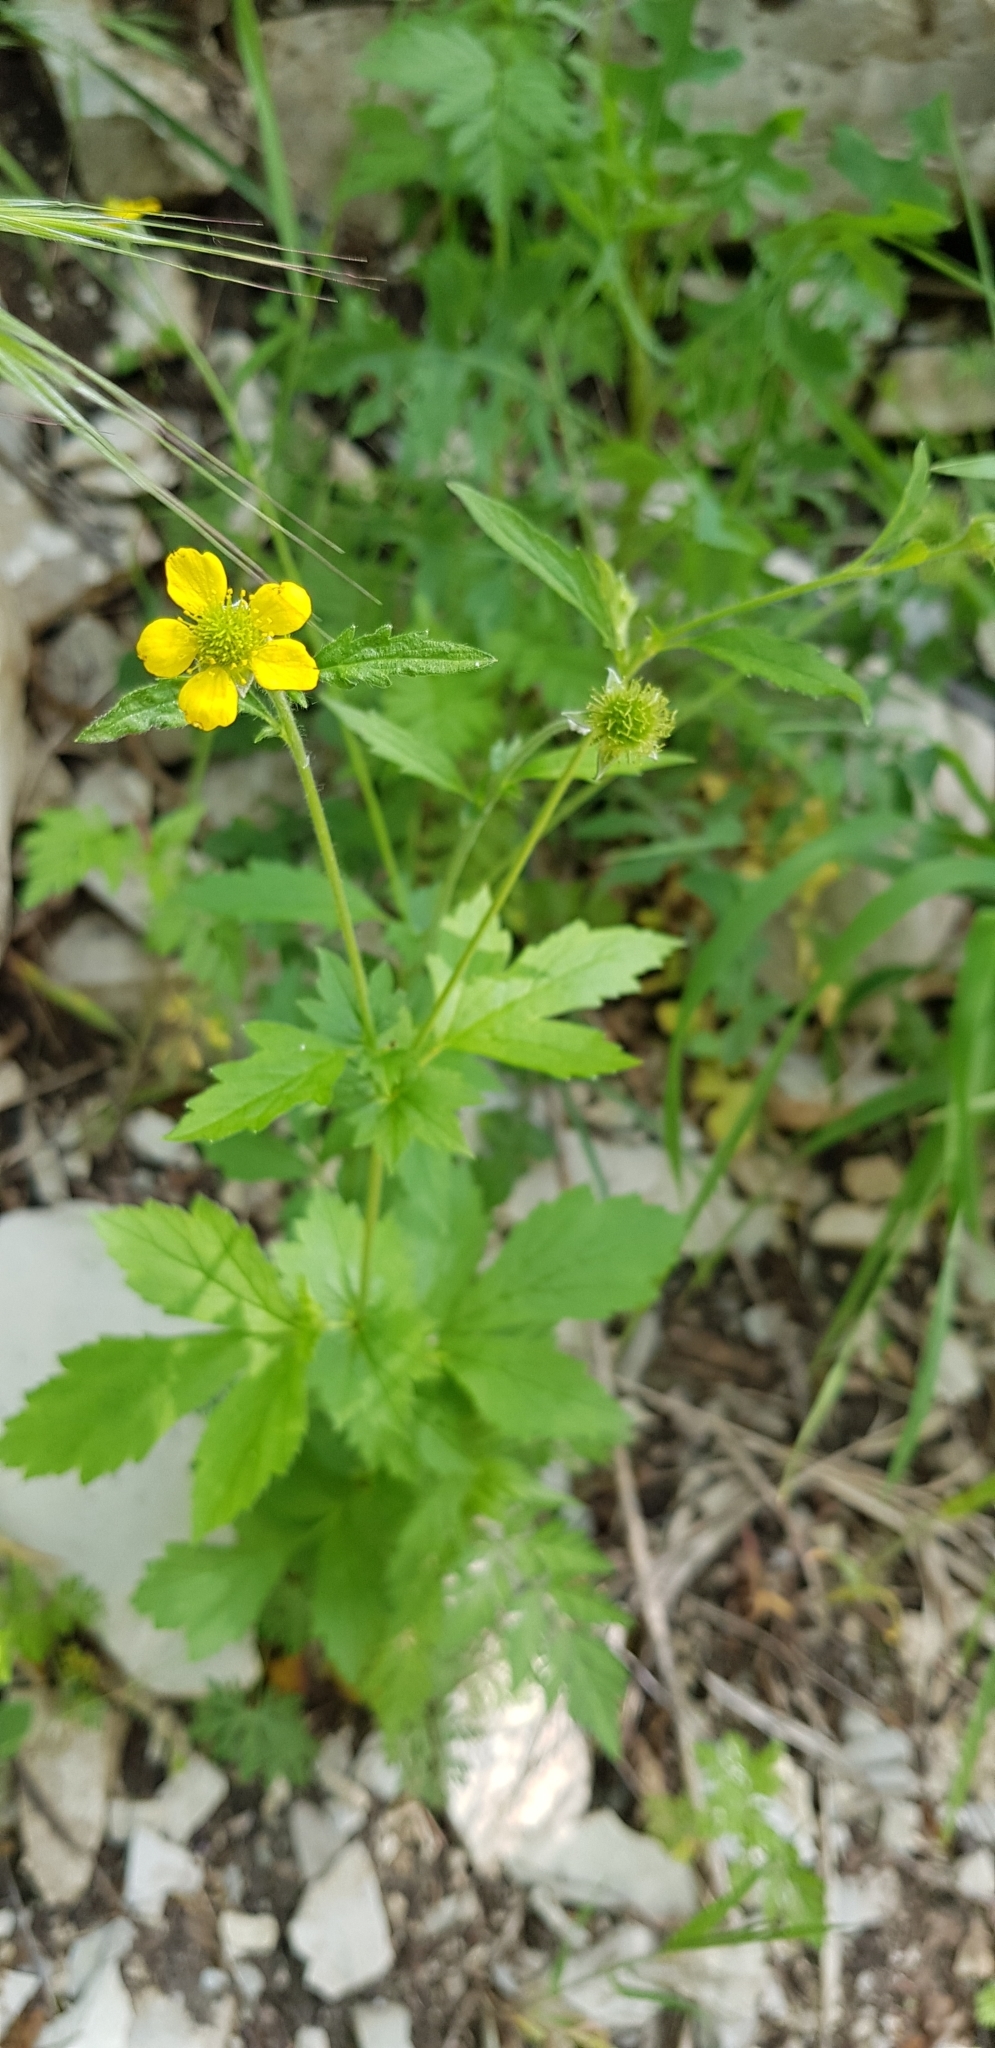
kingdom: Plantae
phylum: Tracheophyta
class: Magnoliopsida
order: Rosales
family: Rosaceae
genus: Geum
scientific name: Geum urbanum
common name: Wood avens
